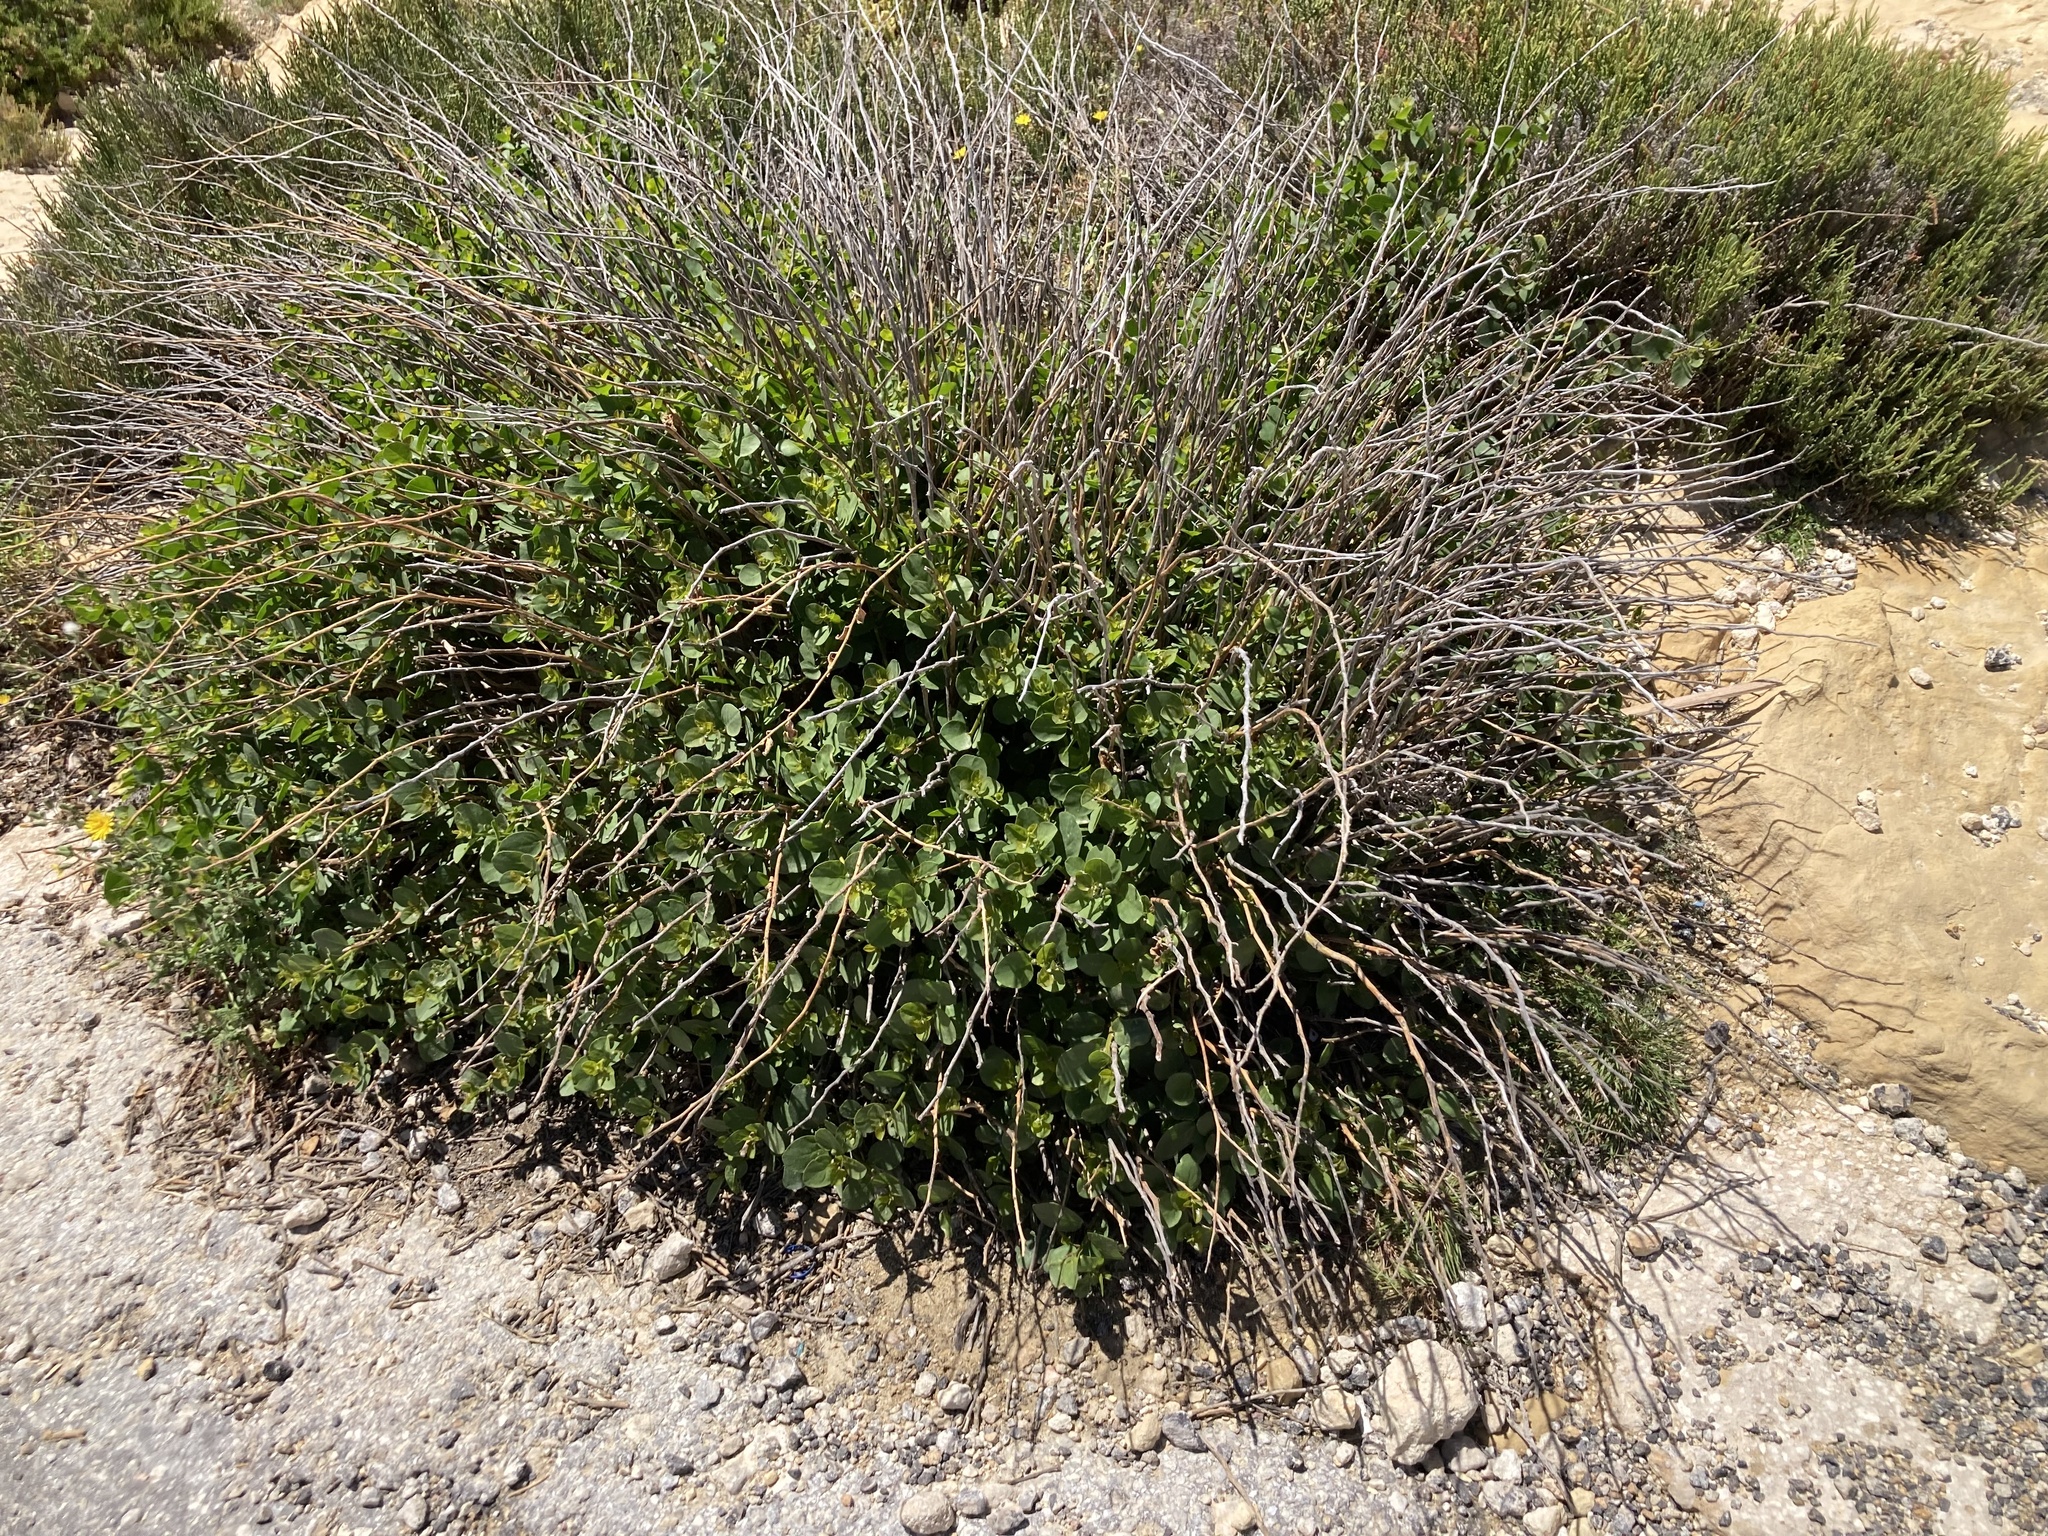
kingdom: Plantae
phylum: Tracheophyta
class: Magnoliopsida
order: Brassicales
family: Capparaceae
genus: Capparis
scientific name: Capparis orientalis
